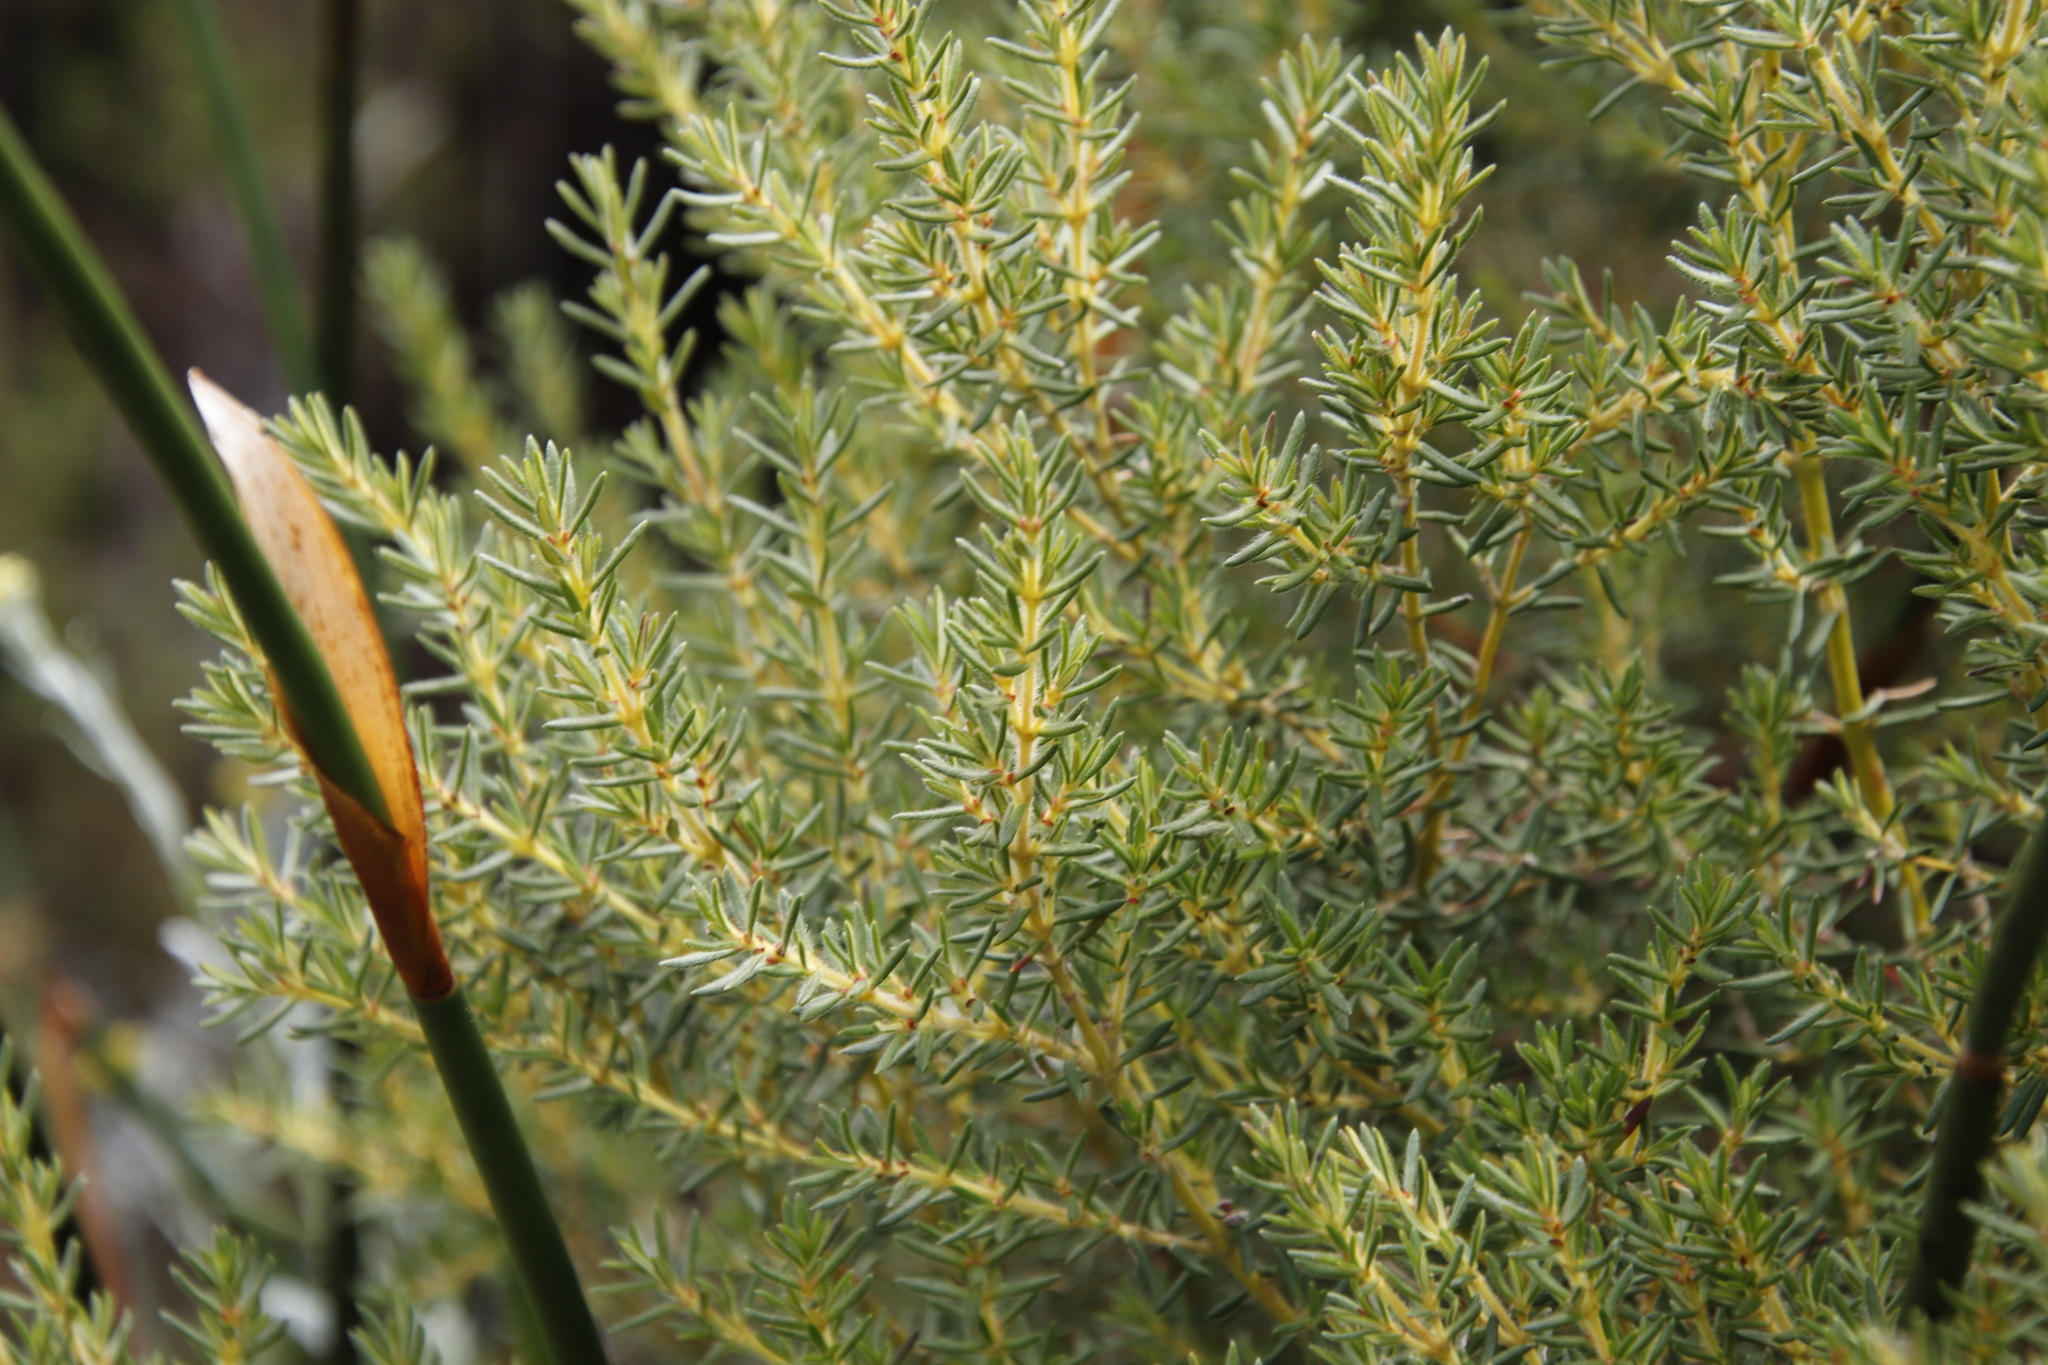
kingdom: Plantae
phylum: Tracheophyta
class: Magnoliopsida
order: Cornales
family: Grubbiaceae
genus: Grubbia
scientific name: Grubbia rosmarinifolia
